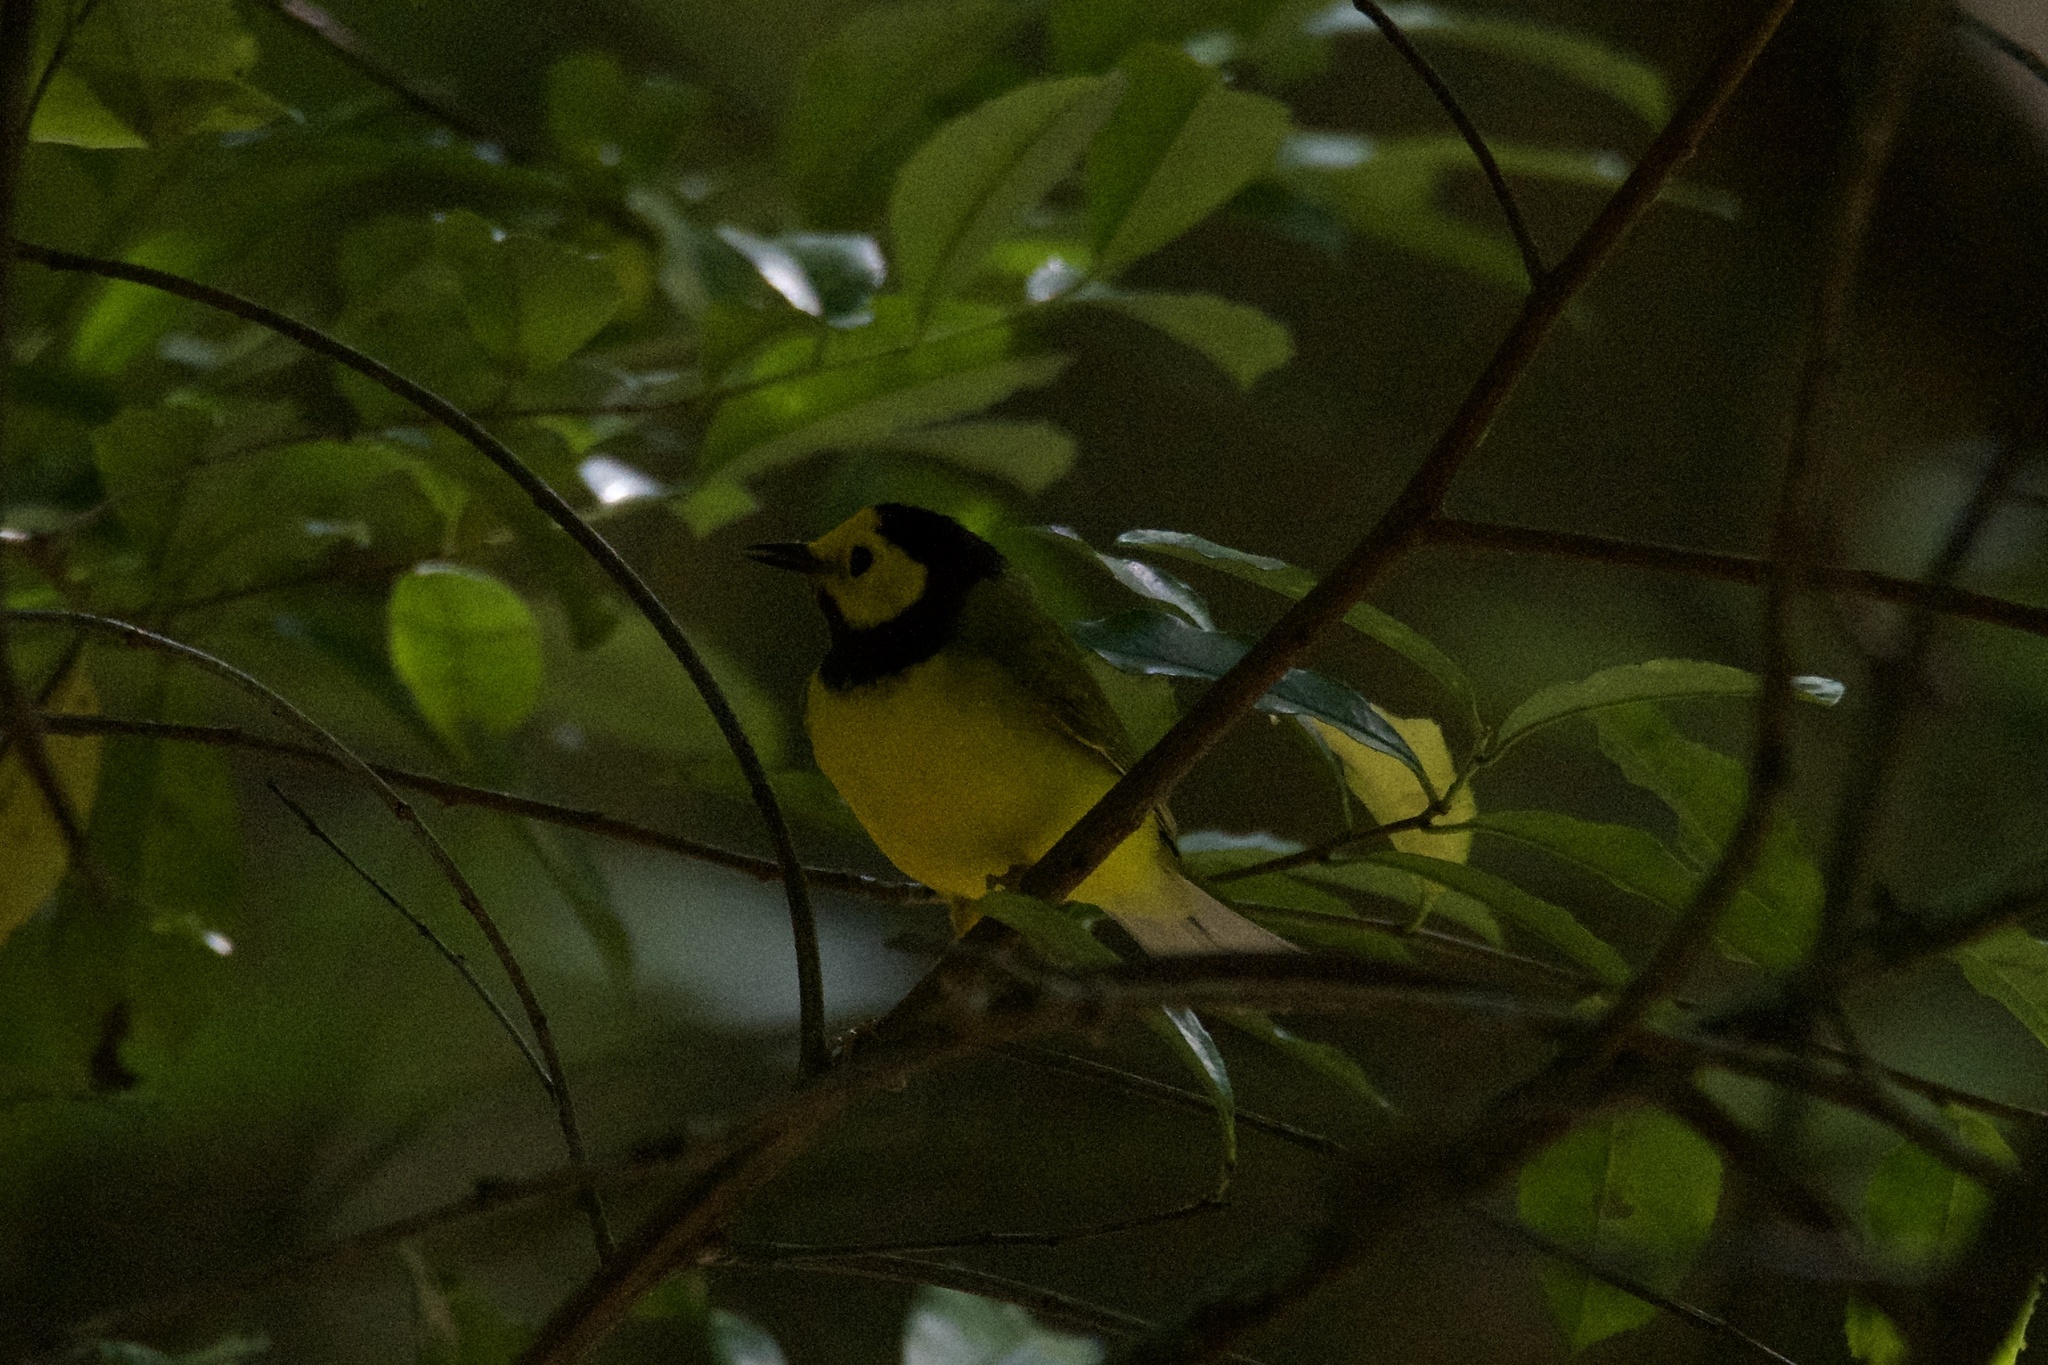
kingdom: Animalia
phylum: Chordata
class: Aves
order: Passeriformes
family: Parulidae
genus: Setophaga
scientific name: Setophaga citrina
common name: Hooded warbler
